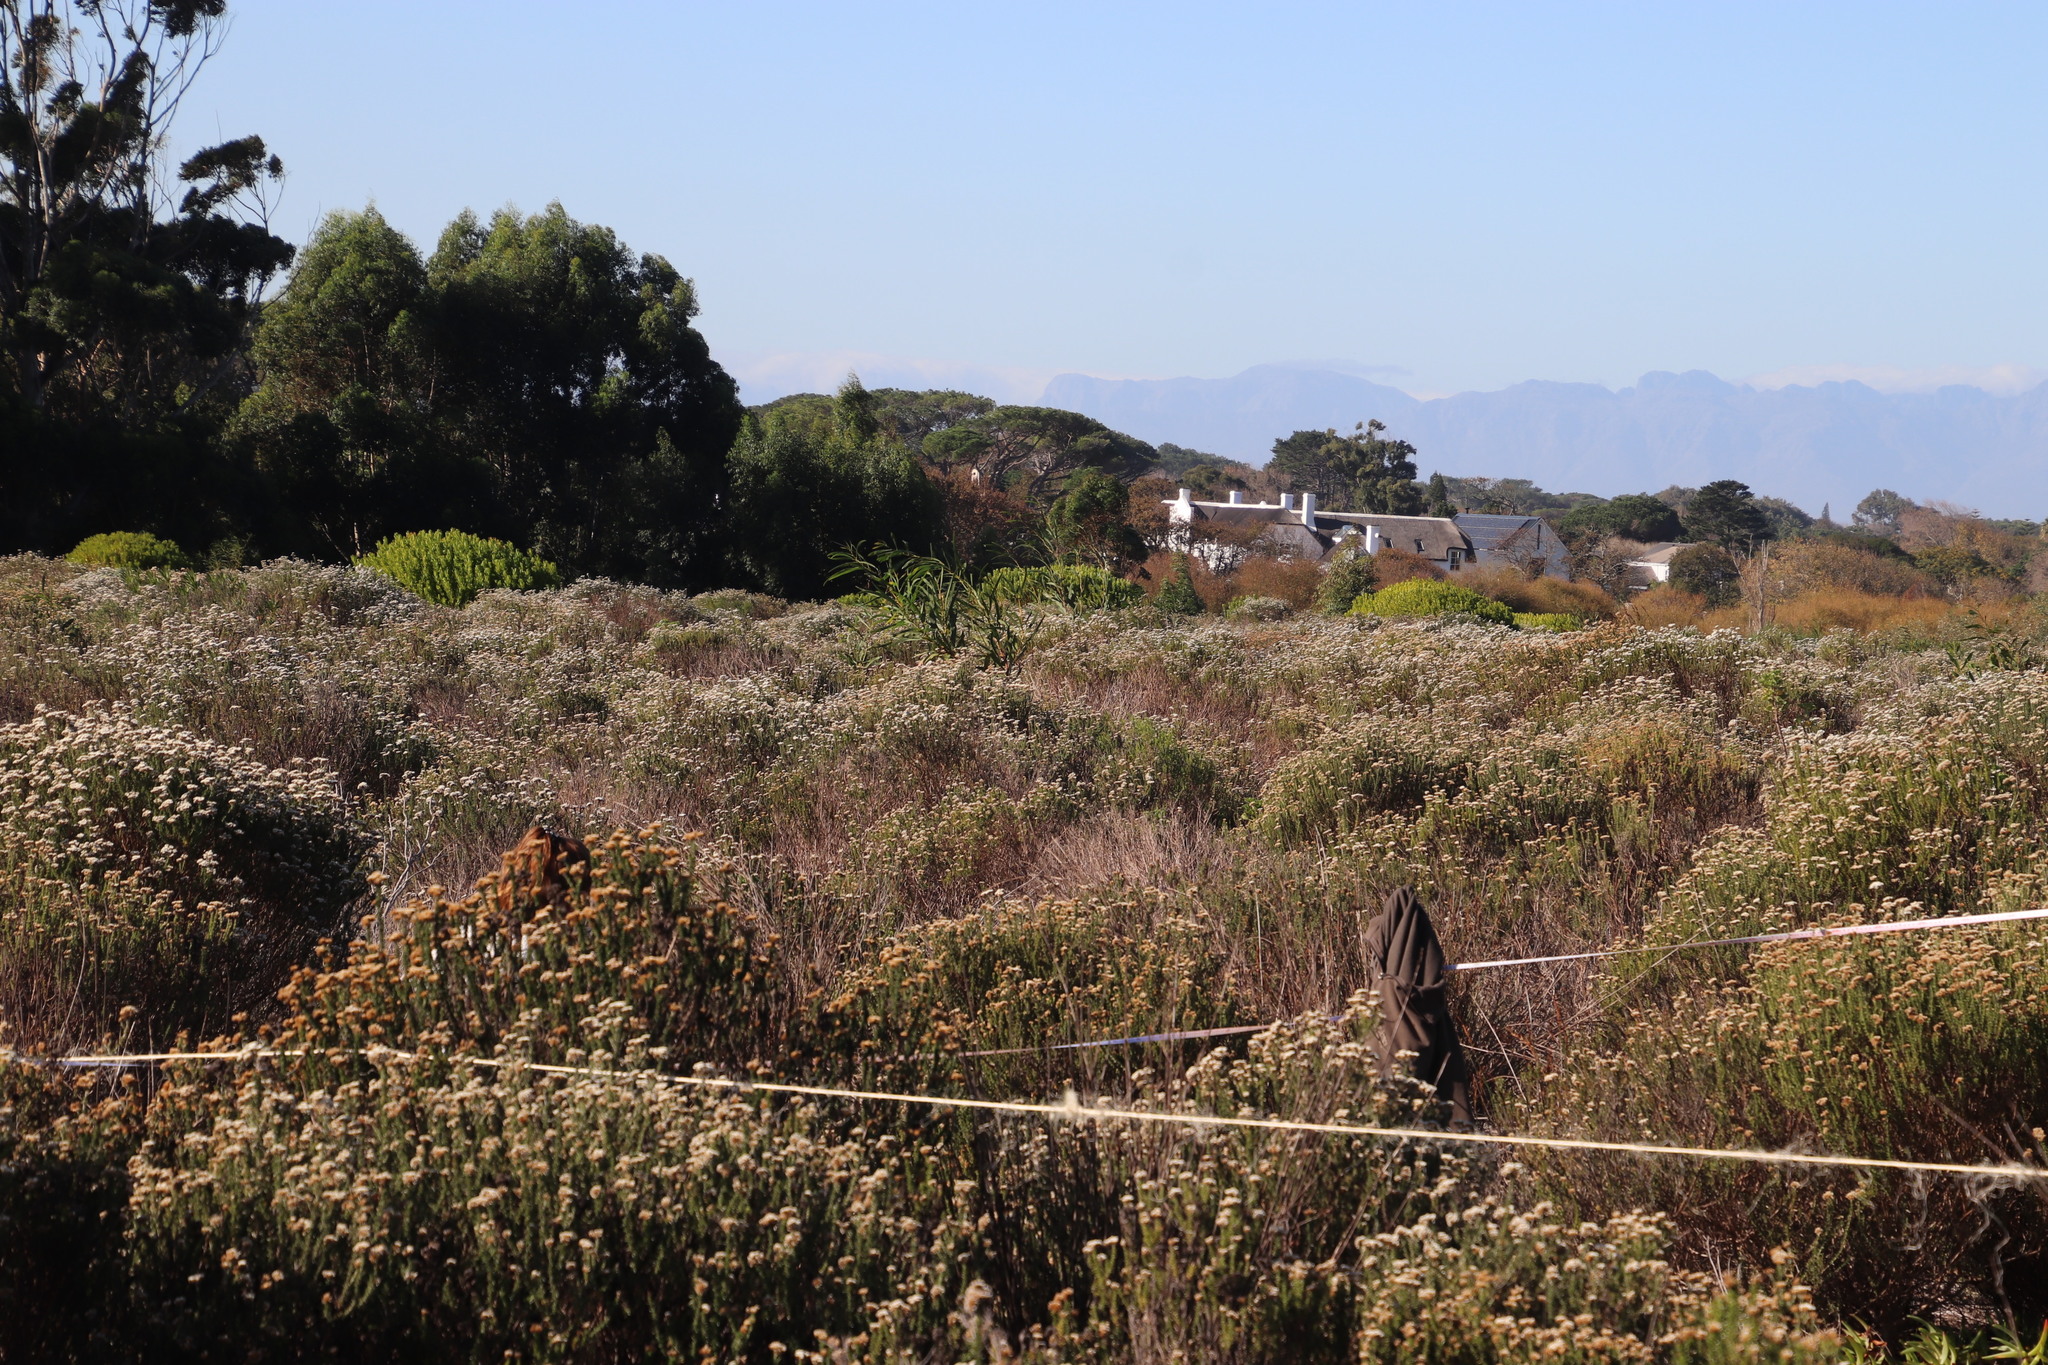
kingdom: Plantae
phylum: Tracheophyta
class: Magnoliopsida
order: Asterales
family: Asteraceae
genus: Metalasia
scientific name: Metalasia densa
